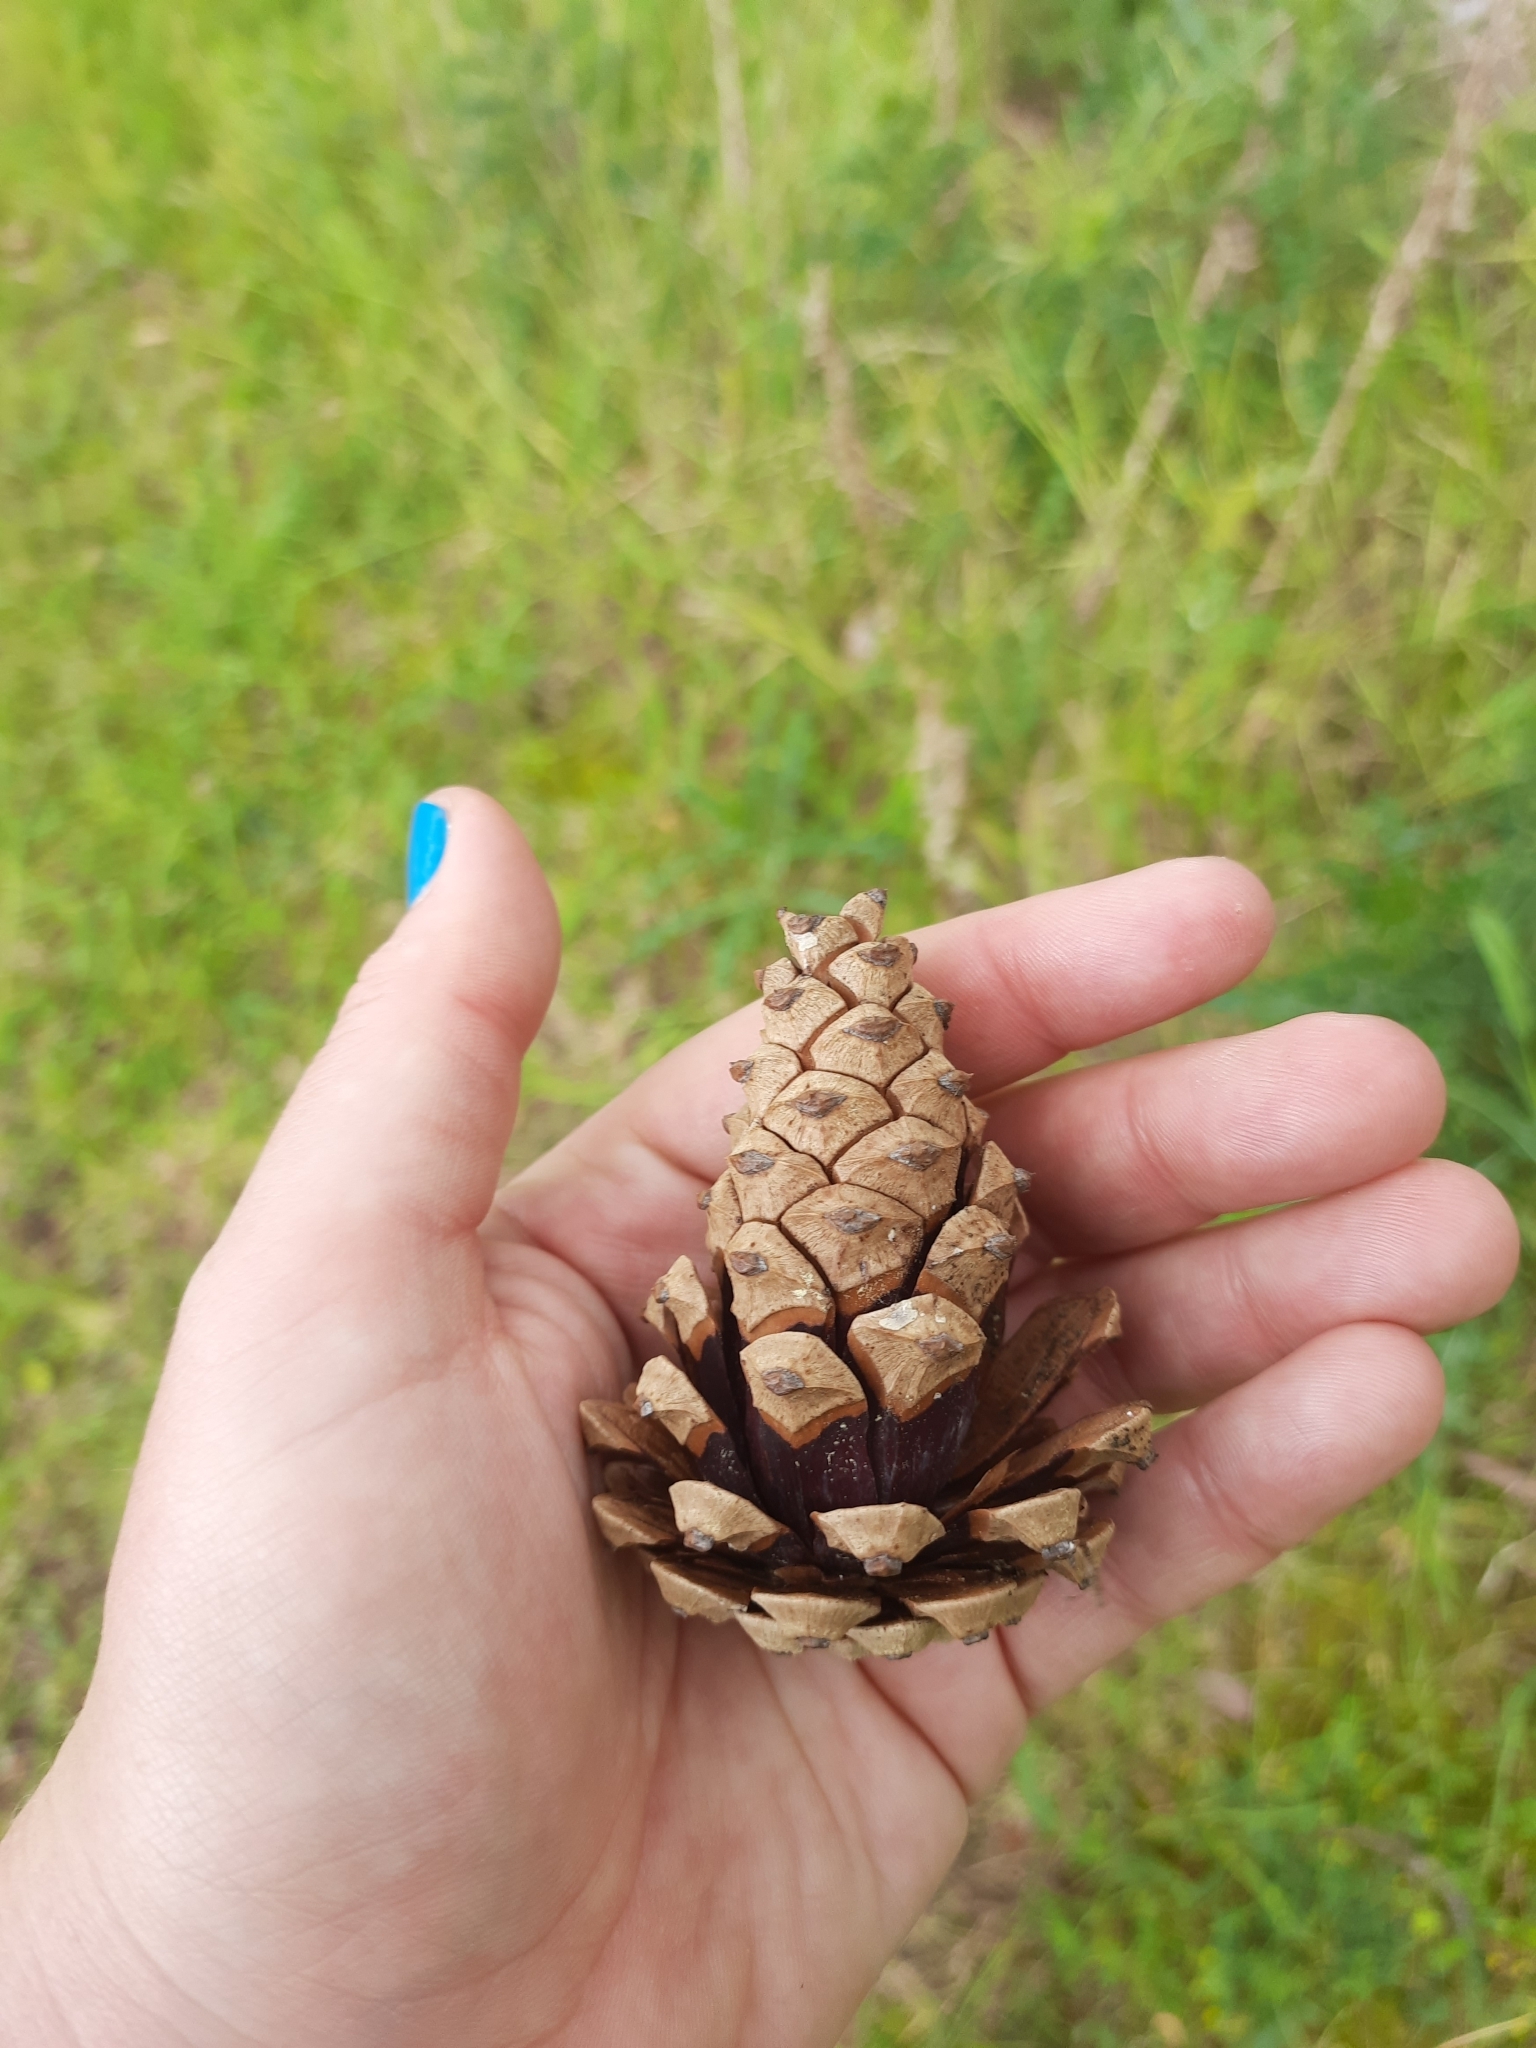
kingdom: Plantae
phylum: Tracheophyta
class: Pinopsida
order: Pinales
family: Pinaceae
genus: Pinus
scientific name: Pinus nigra
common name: Austrian pine
